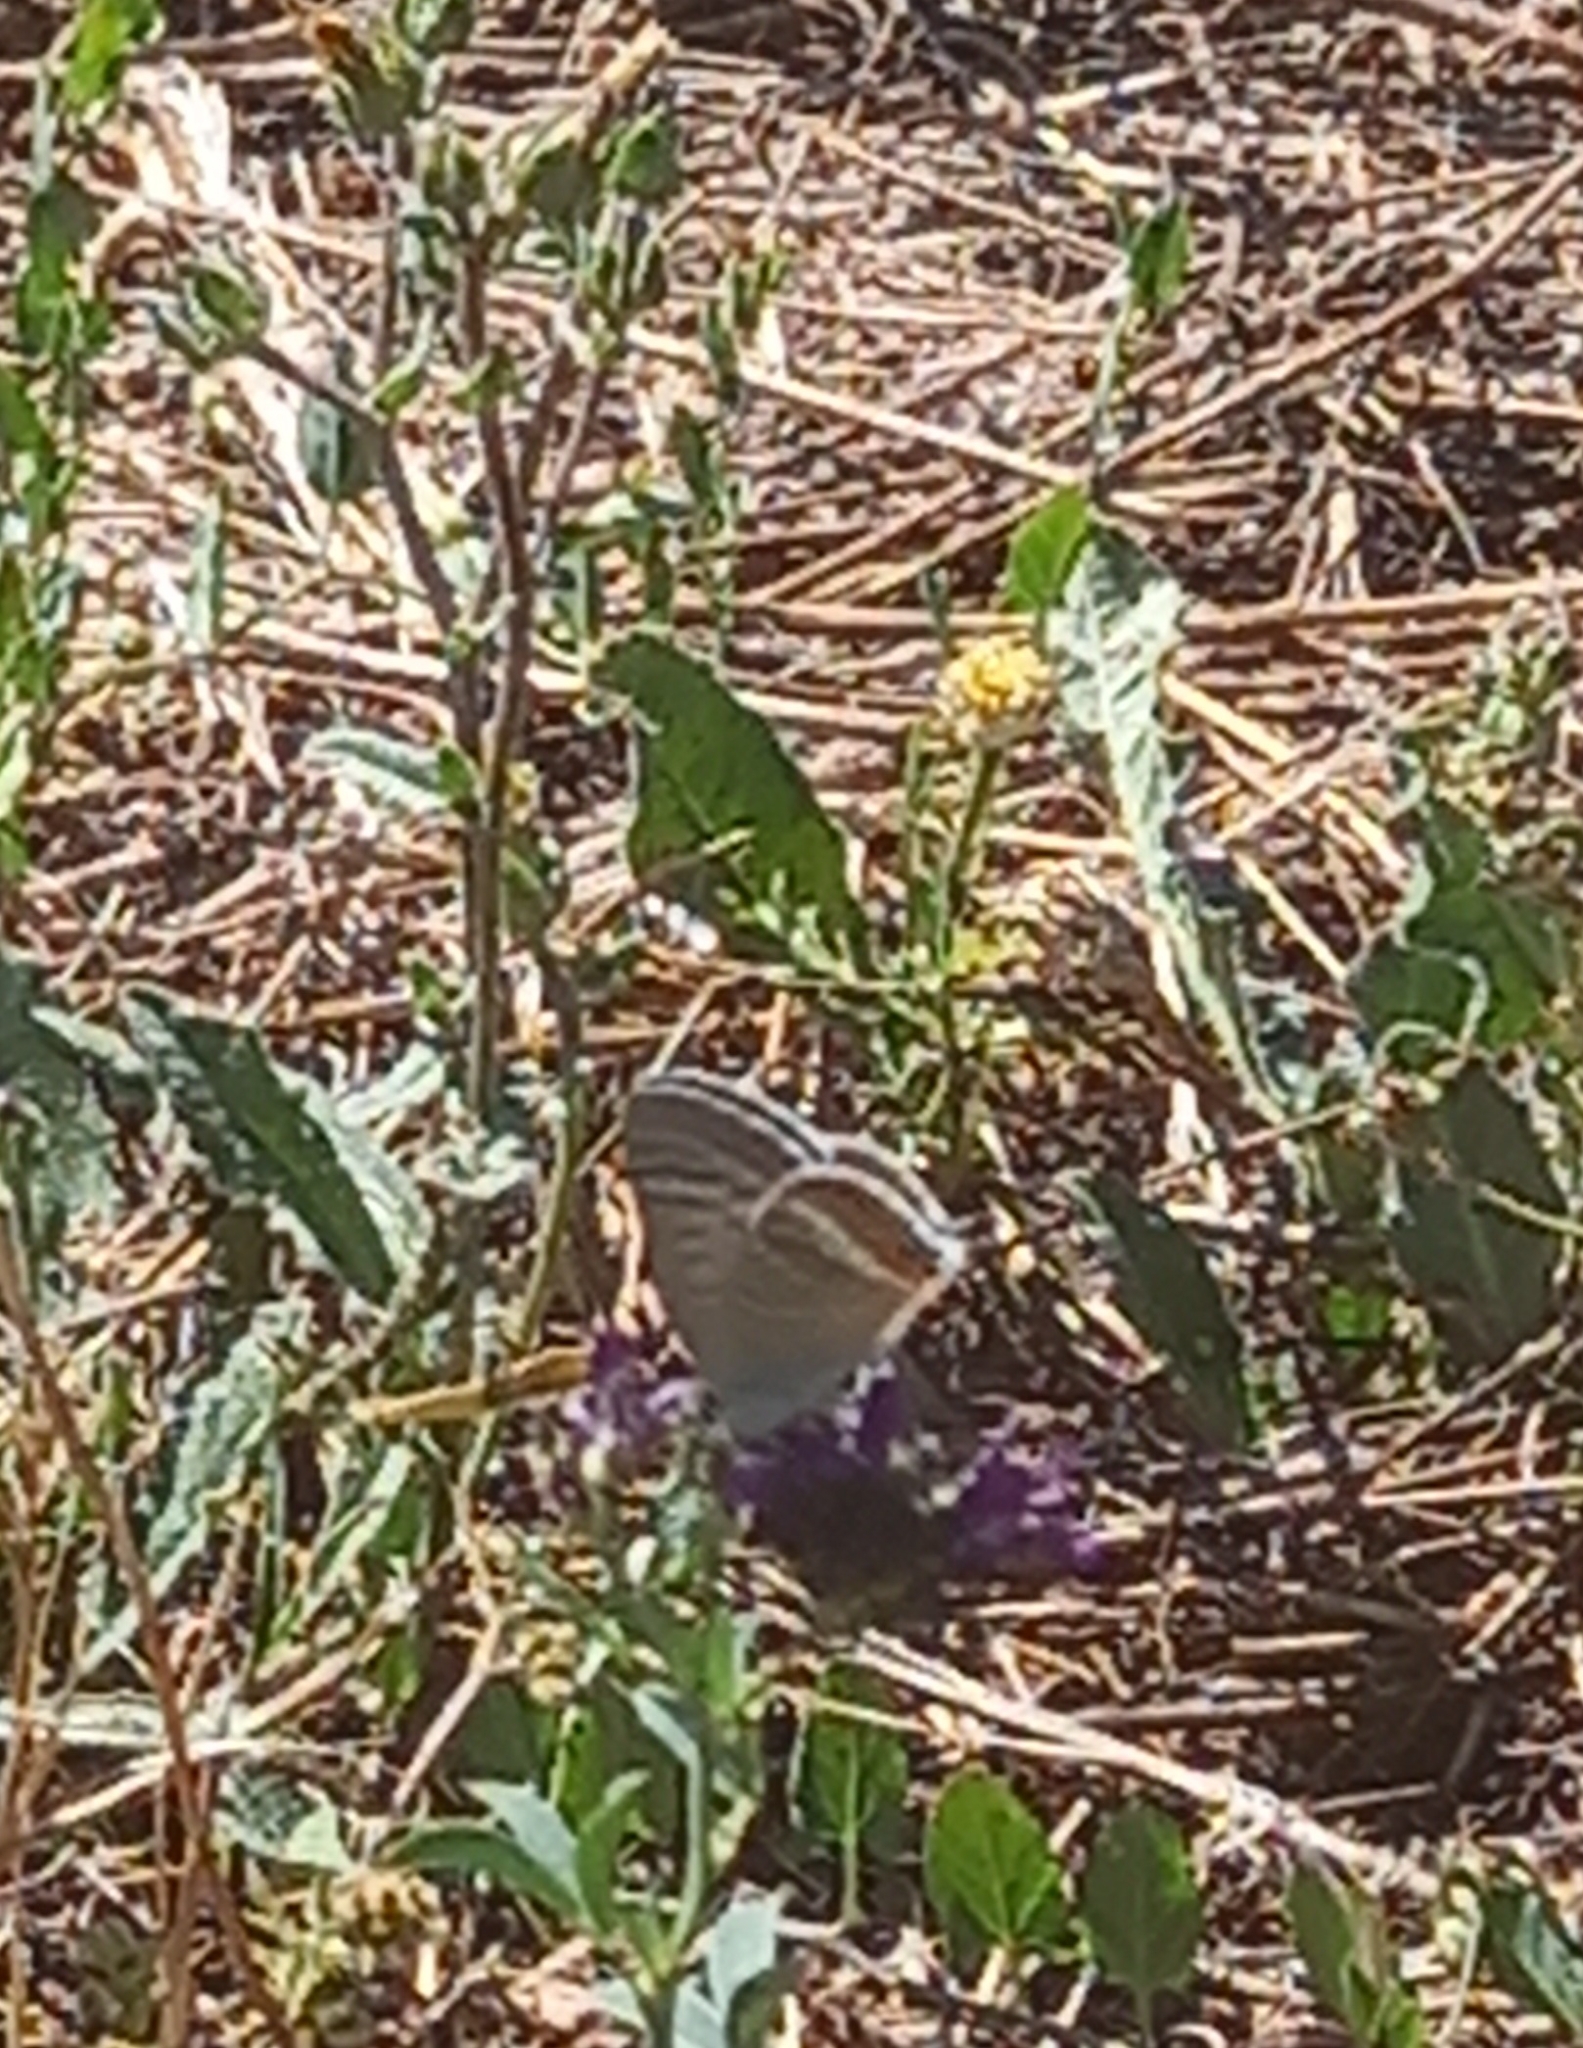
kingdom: Animalia
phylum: Arthropoda
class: Insecta
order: Lepidoptera
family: Lycaenidae
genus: Lampides
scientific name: Lampides boeticus
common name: Long-tailed blue
